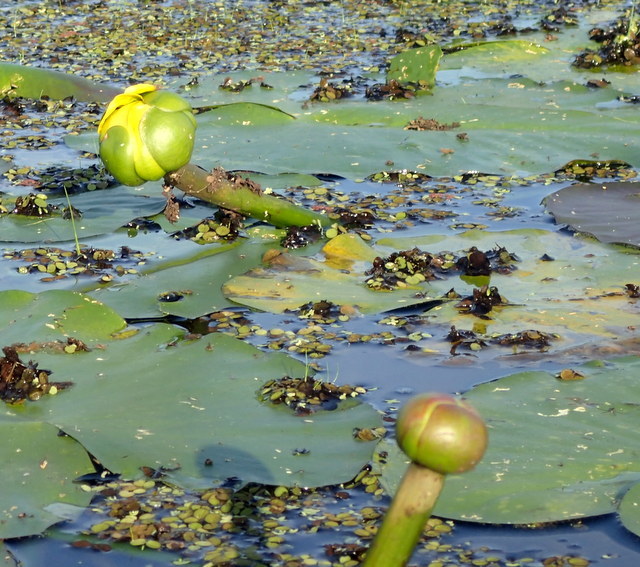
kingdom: Plantae
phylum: Tracheophyta
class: Magnoliopsida
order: Nymphaeales
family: Nymphaeaceae
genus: Nuphar
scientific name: Nuphar advena
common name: Spatter-dock
